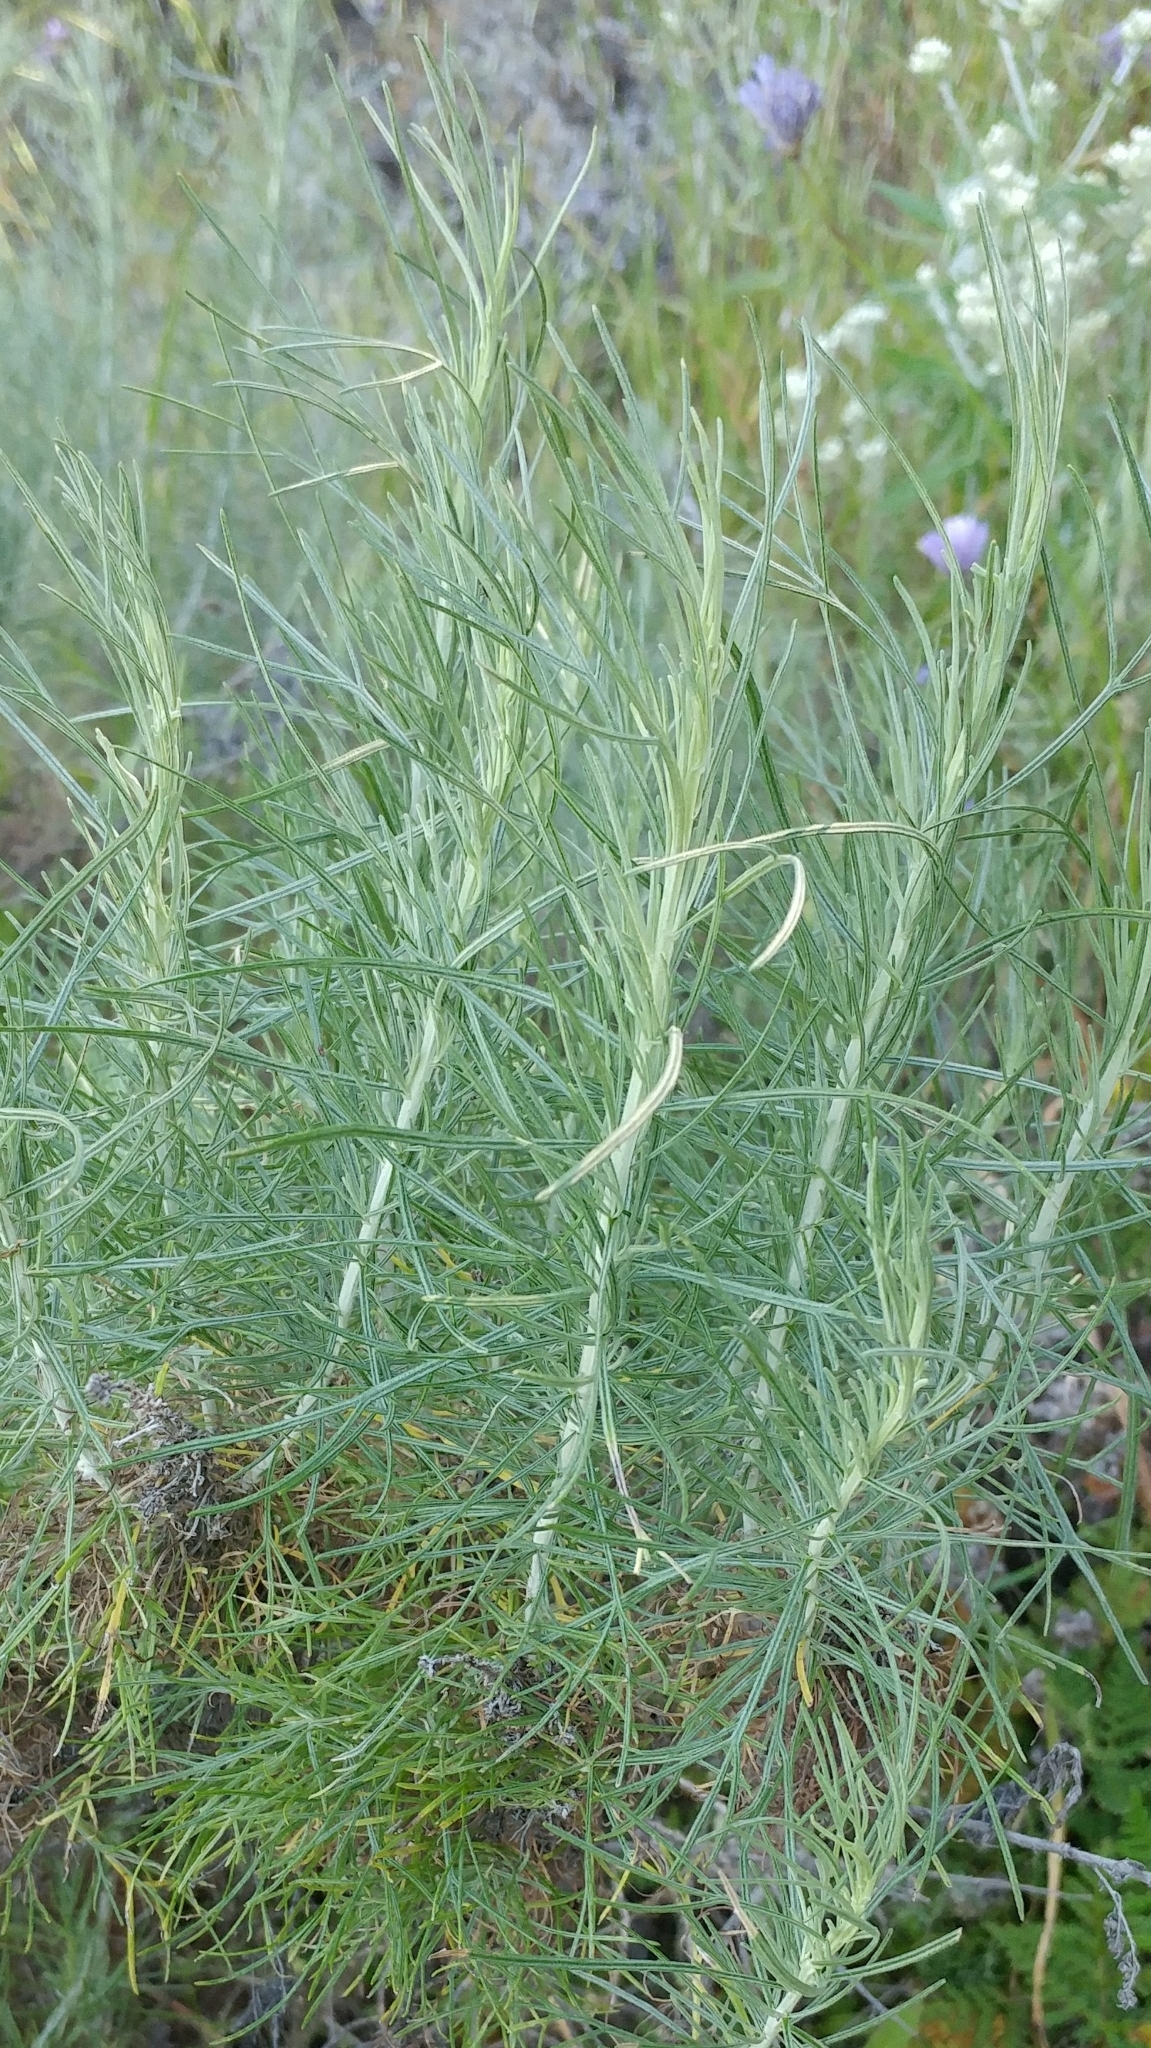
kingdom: Plantae
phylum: Tracheophyta
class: Magnoliopsida
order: Asterales
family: Asteraceae
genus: Artemisia
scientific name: Artemisia californica
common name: California sagebrush
